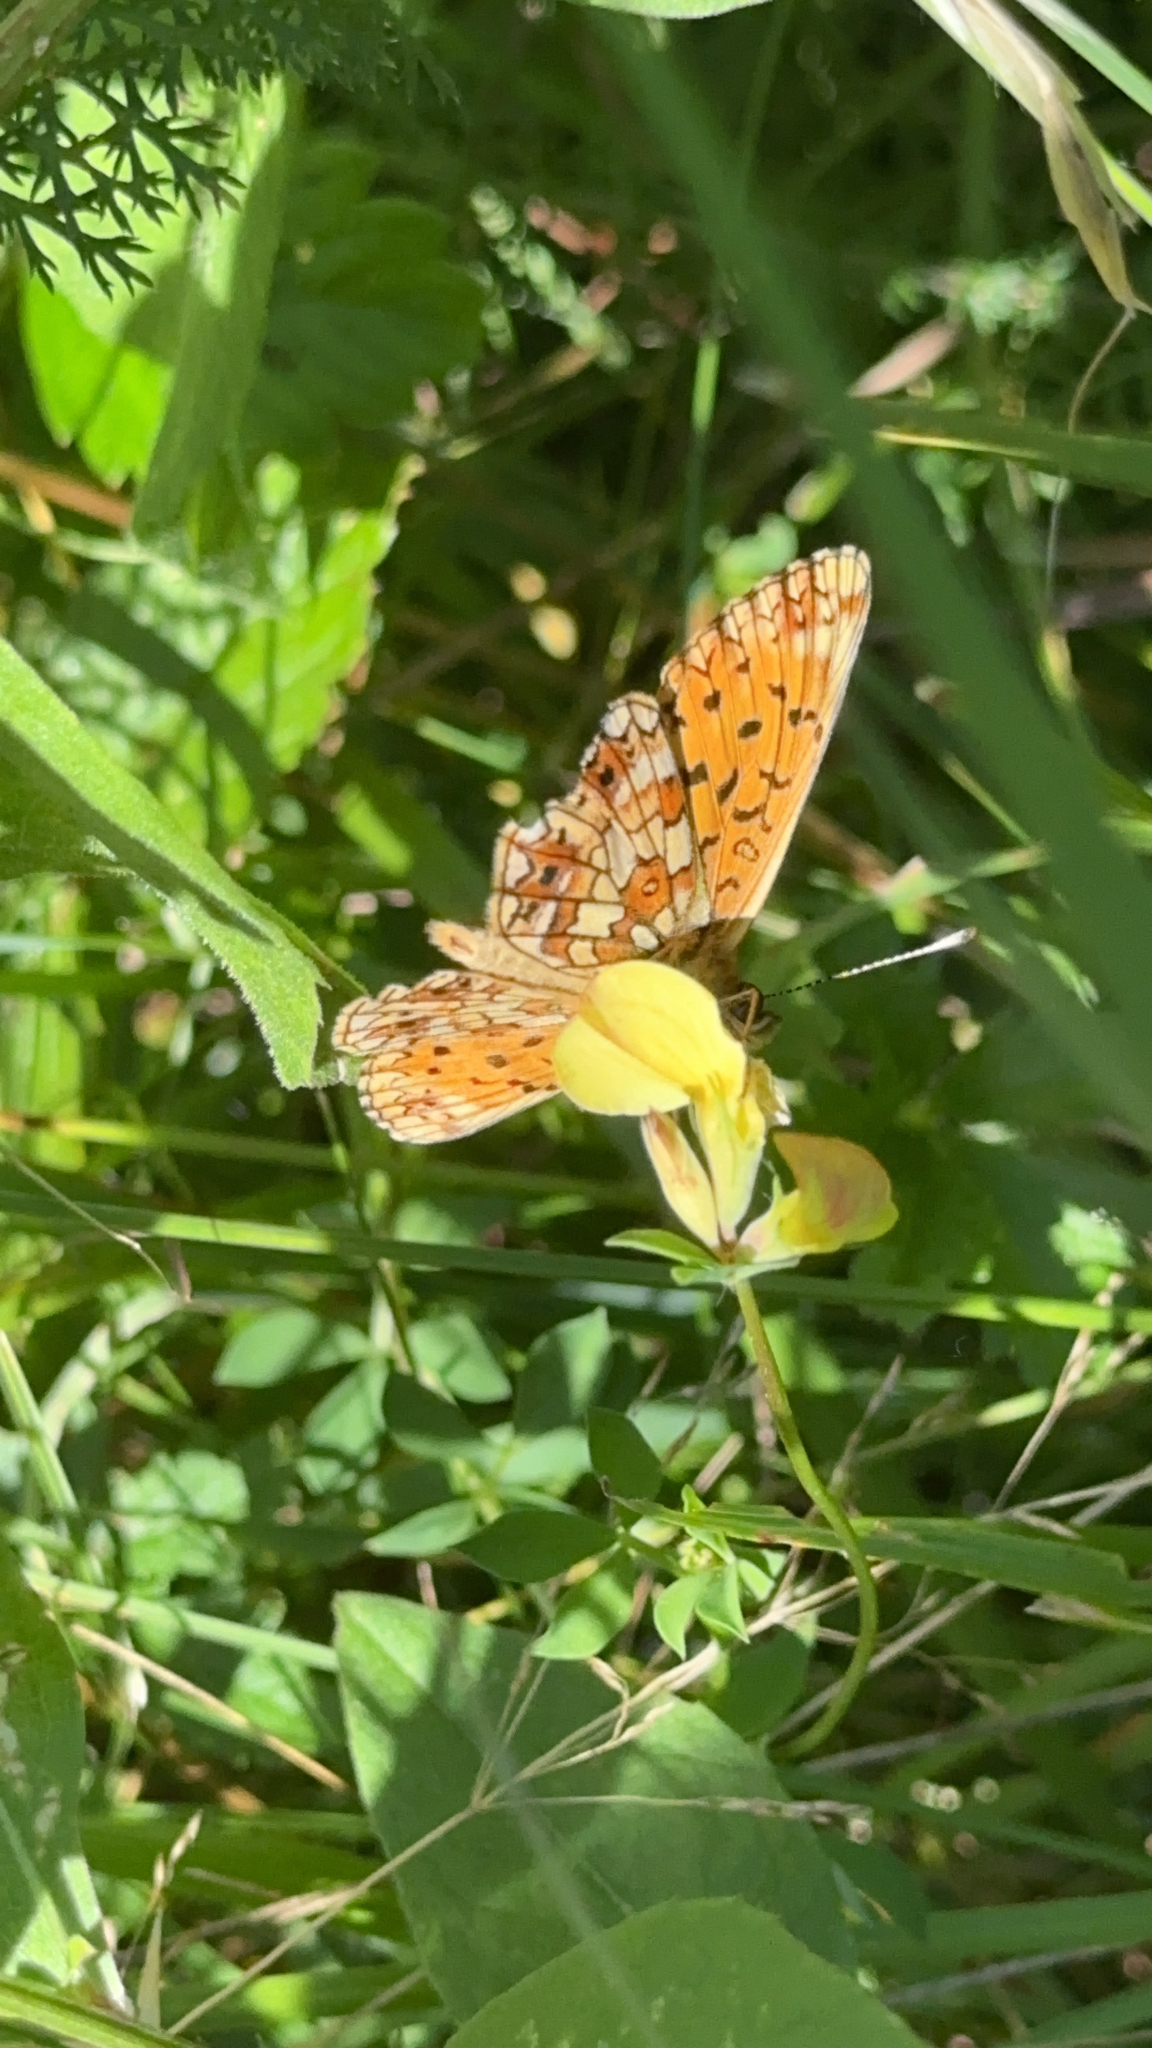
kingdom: Animalia
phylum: Arthropoda
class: Insecta
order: Lepidoptera
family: Nymphalidae
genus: Boloria
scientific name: Boloria selene
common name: Small pearl-bordered fritillary
